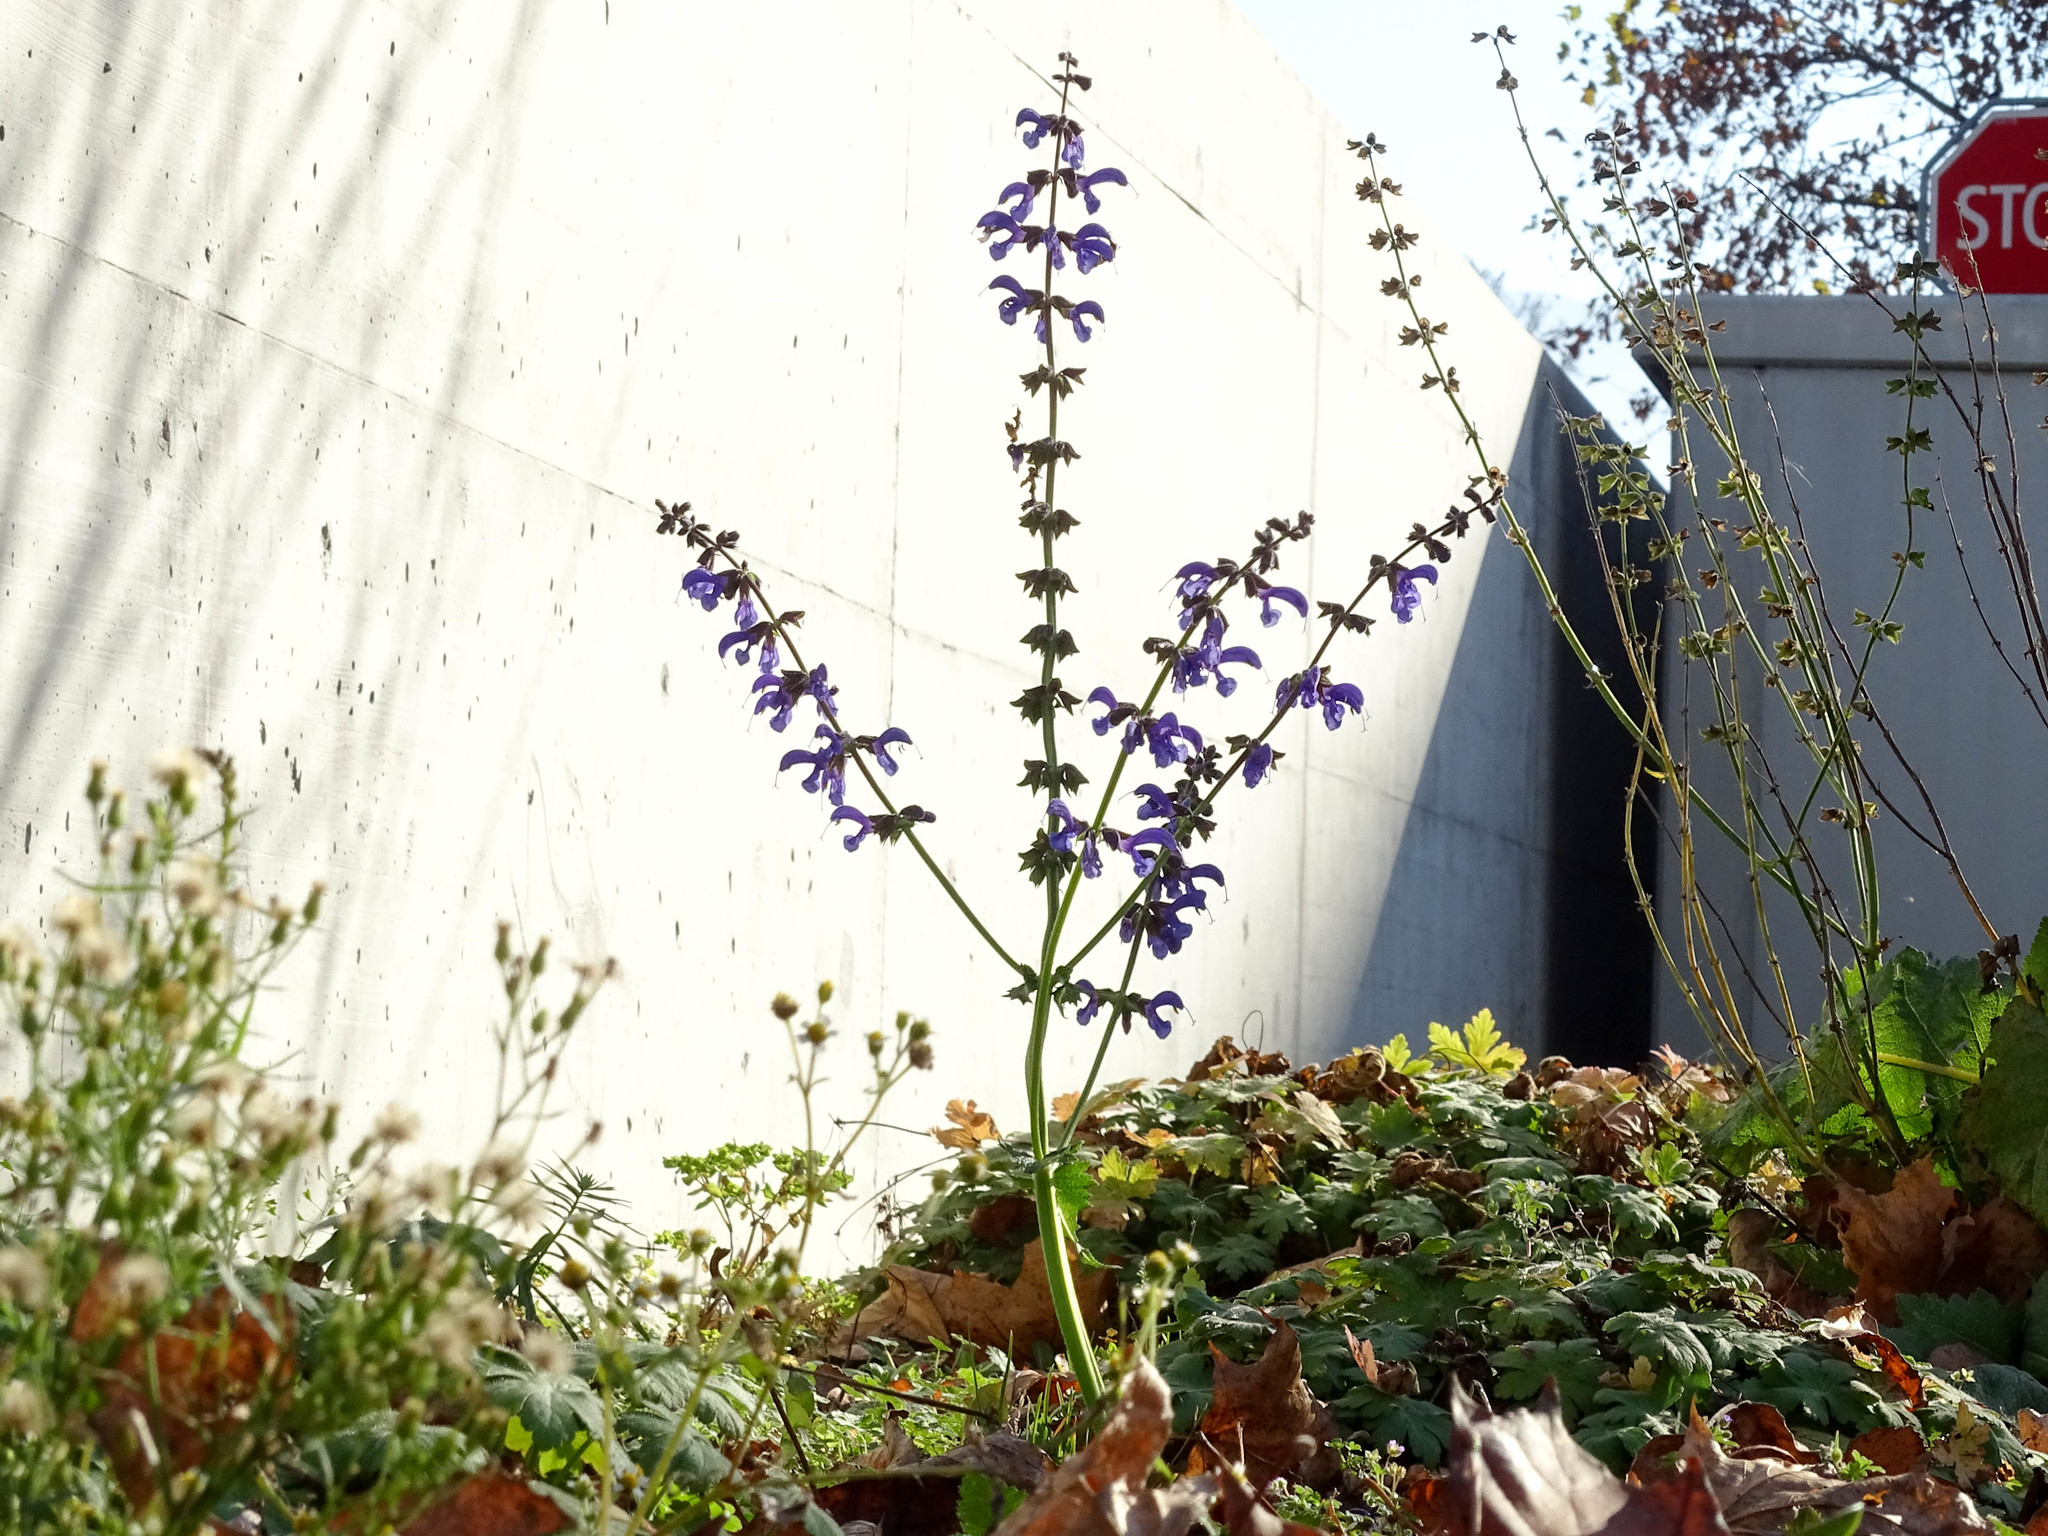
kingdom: Plantae
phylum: Tracheophyta
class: Magnoliopsida
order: Lamiales
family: Lamiaceae
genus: Salvia
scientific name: Salvia pratensis
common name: Meadow sage
